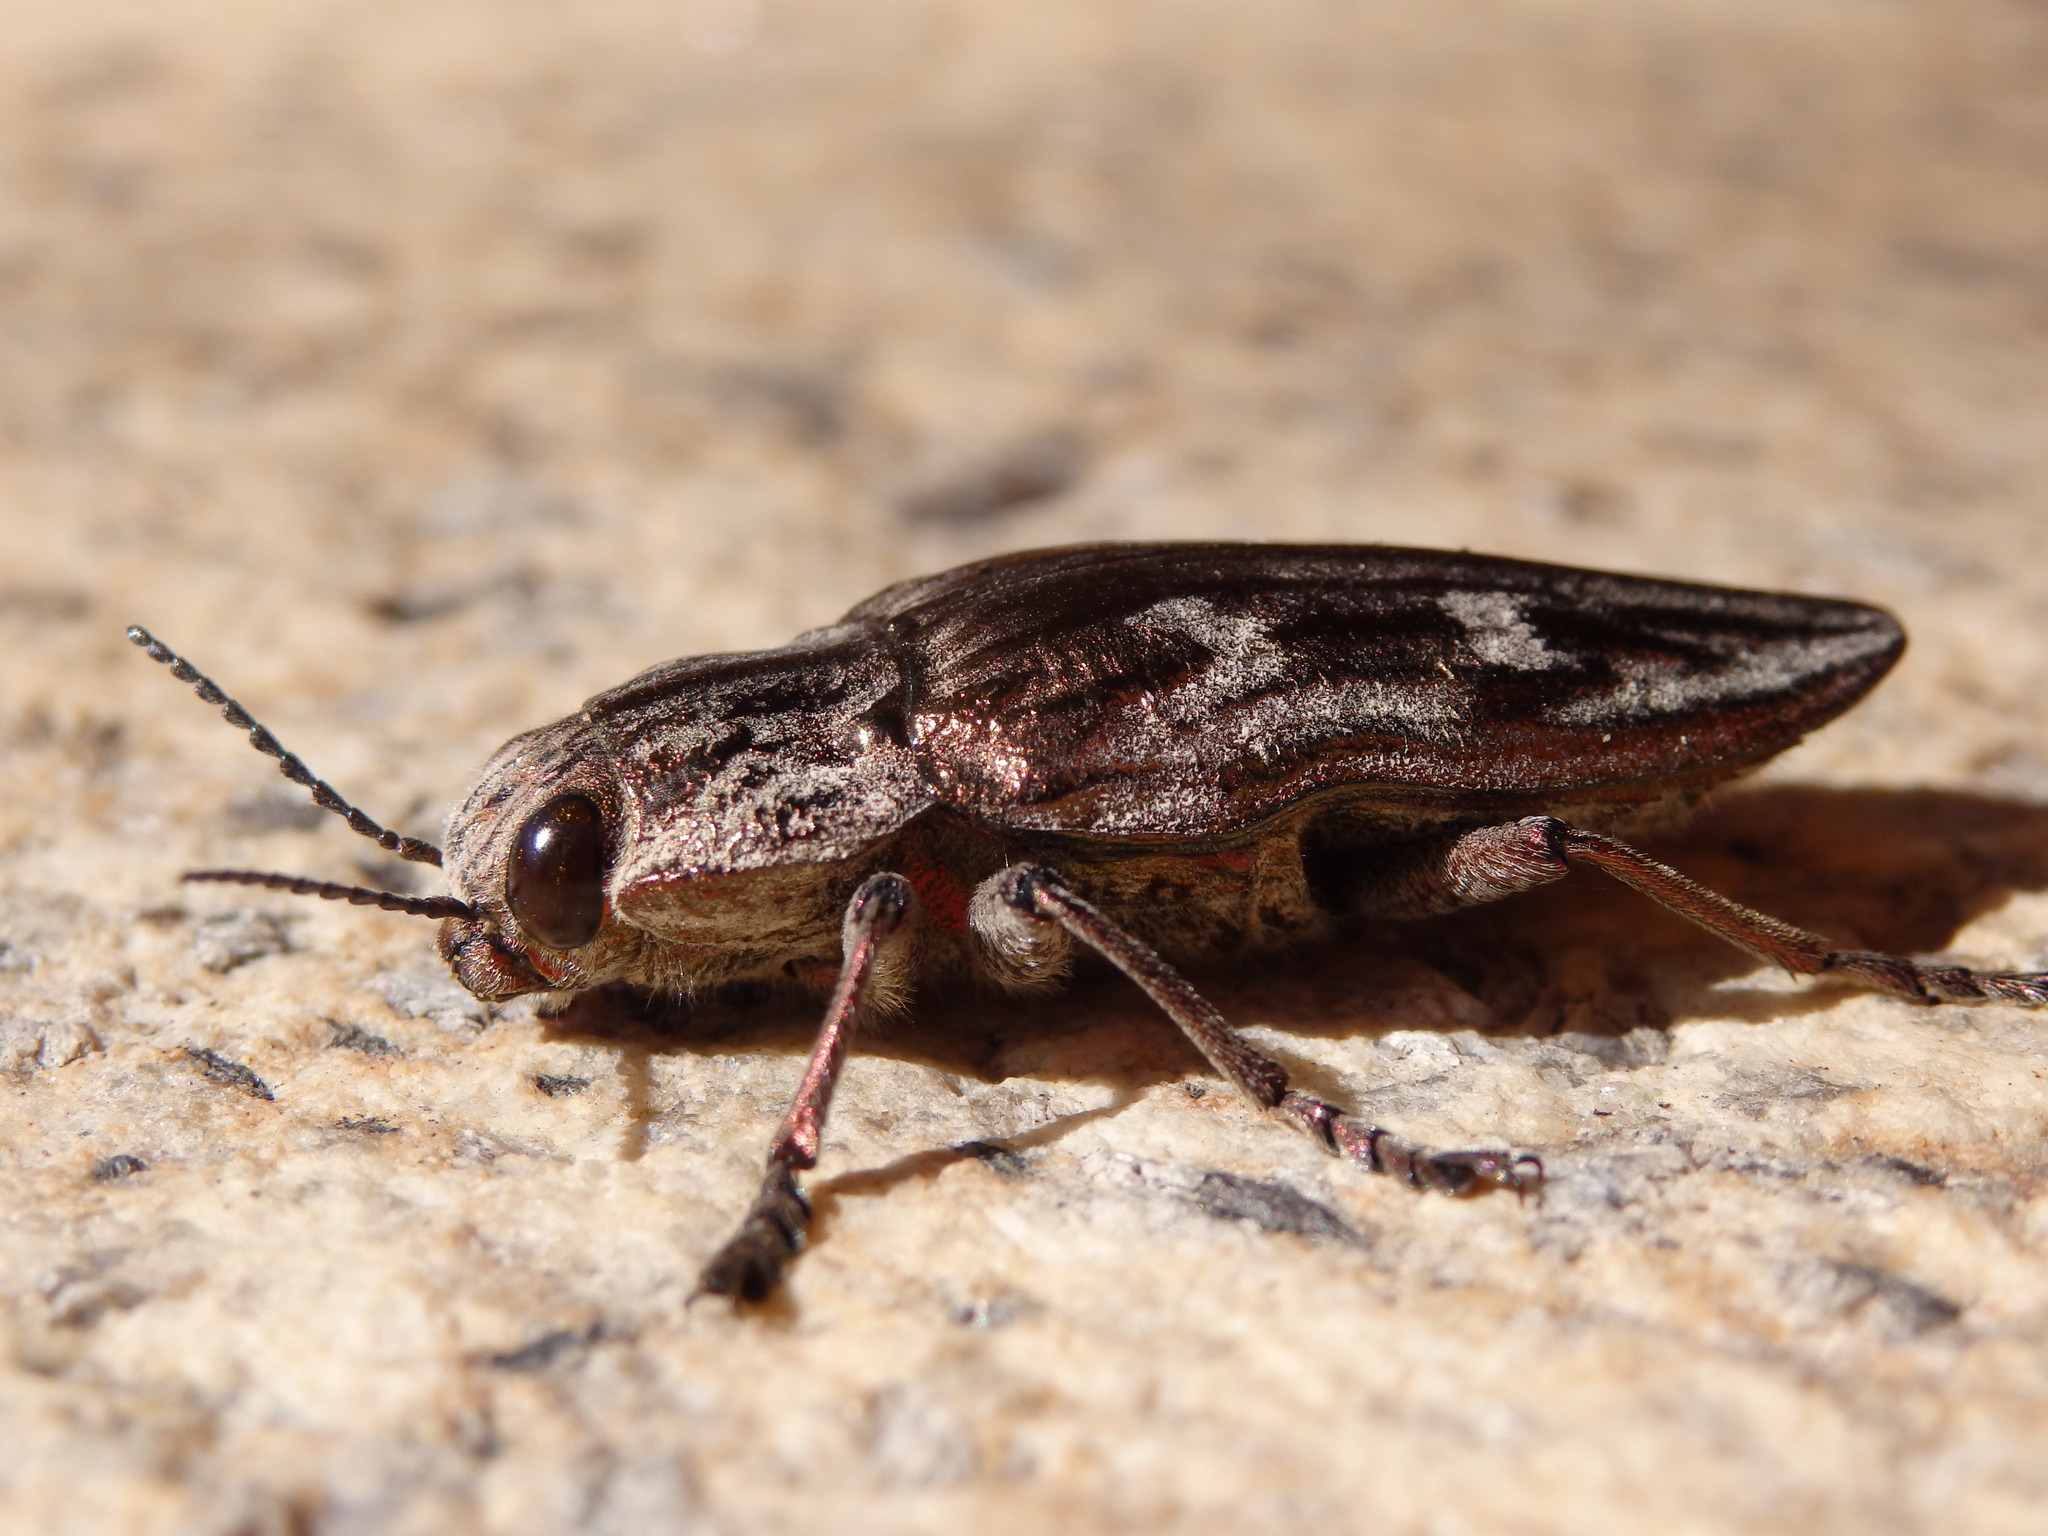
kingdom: Animalia
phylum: Arthropoda
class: Insecta
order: Coleoptera
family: Buprestidae
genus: Chalcophora
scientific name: Chalcophora massiliensis
